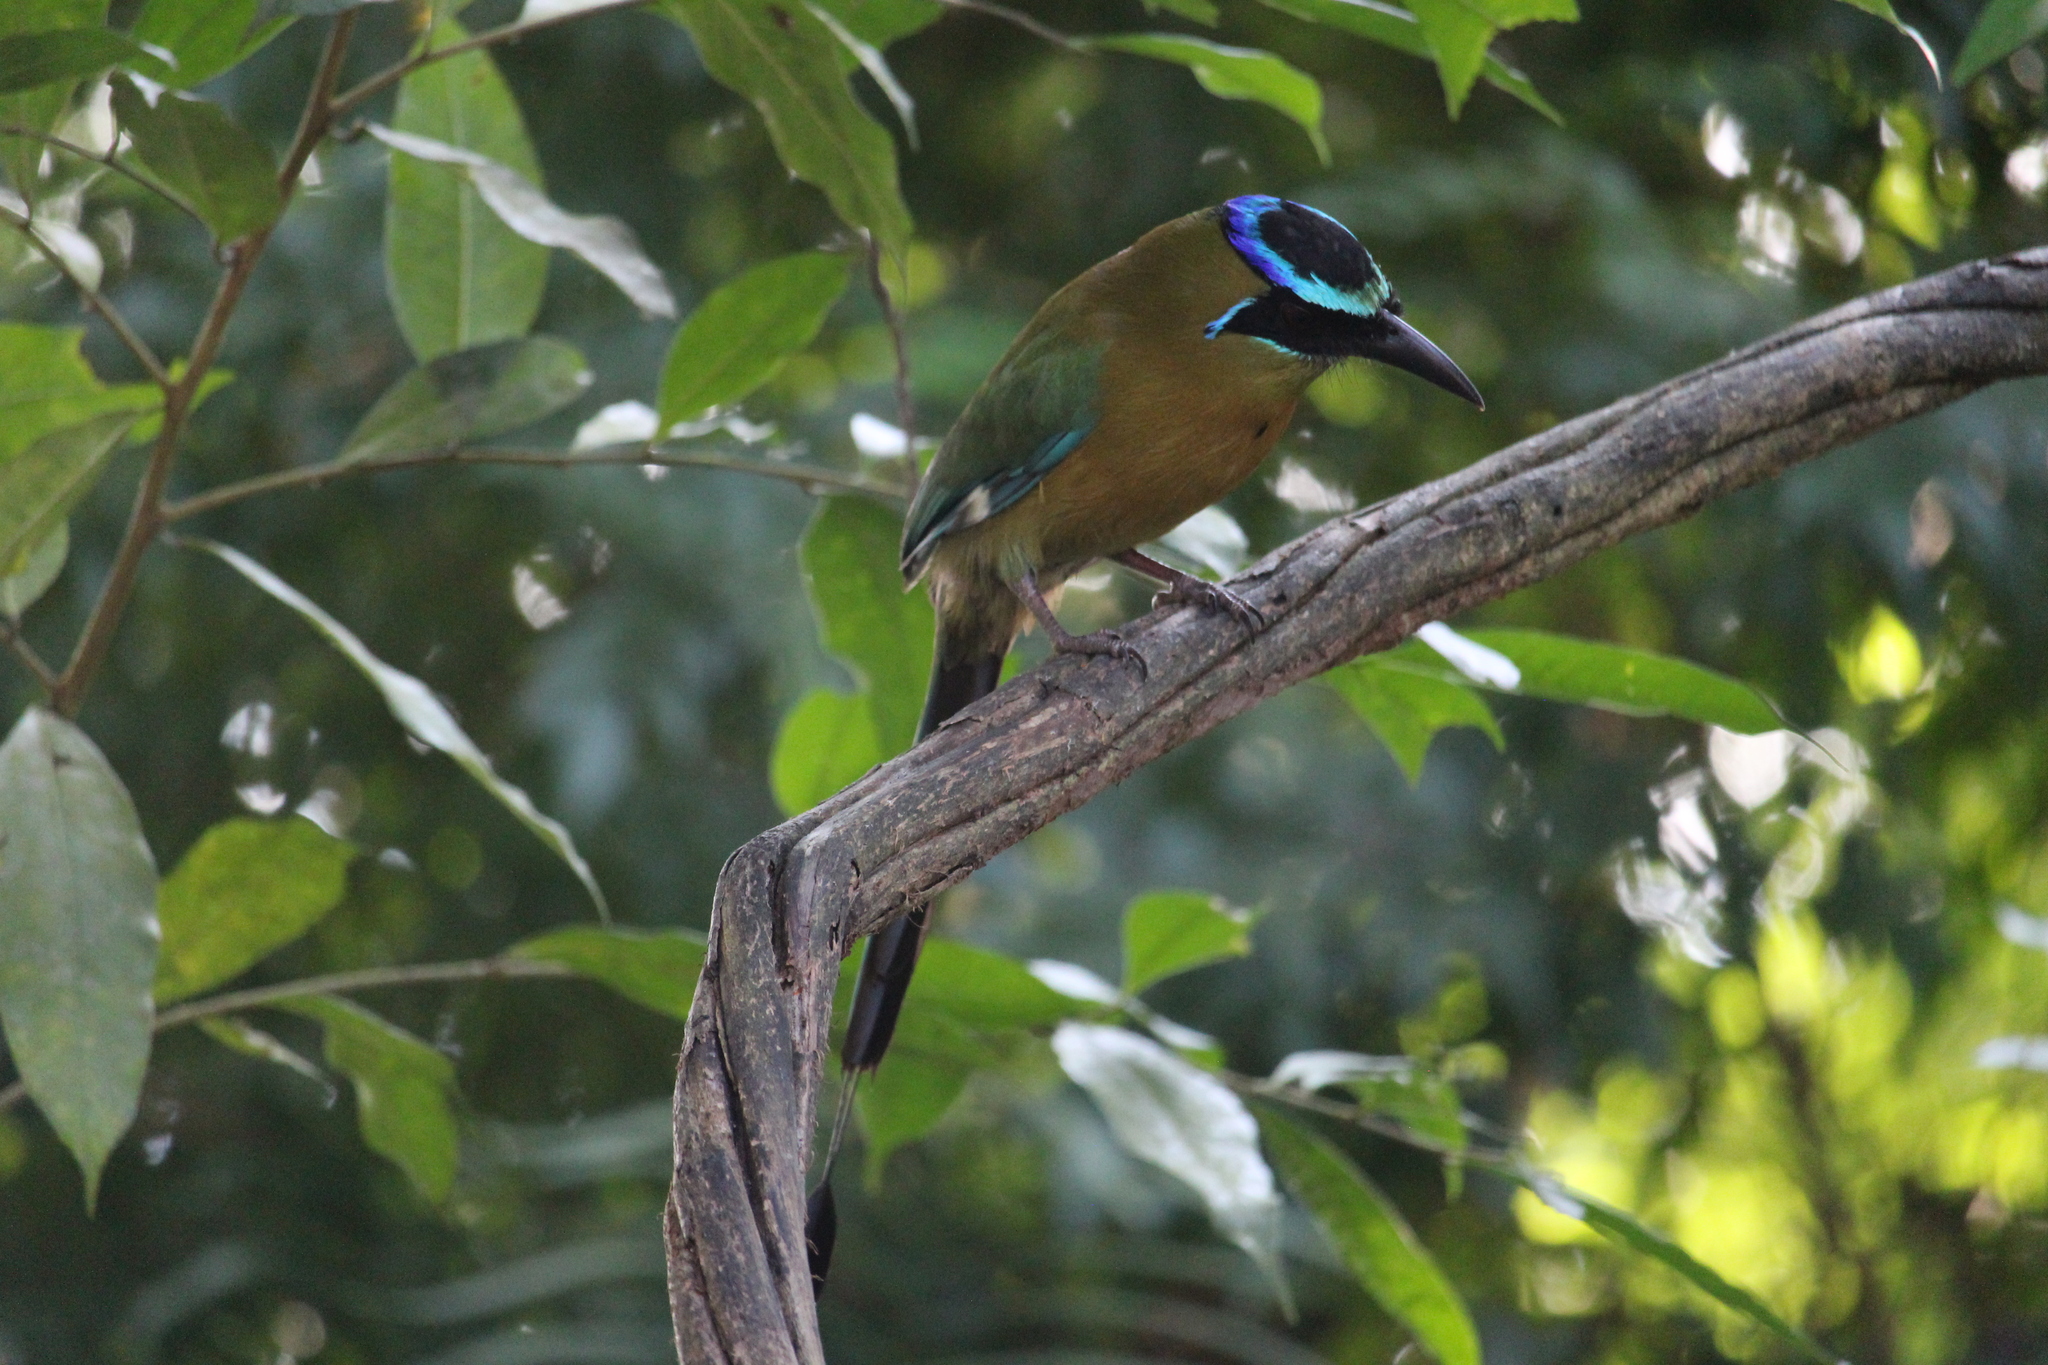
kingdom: Animalia
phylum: Chordata
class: Aves
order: Coraciiformes
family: Momotidae
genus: Momotus
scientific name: Momotus lessonii
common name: Lesson's motmot
